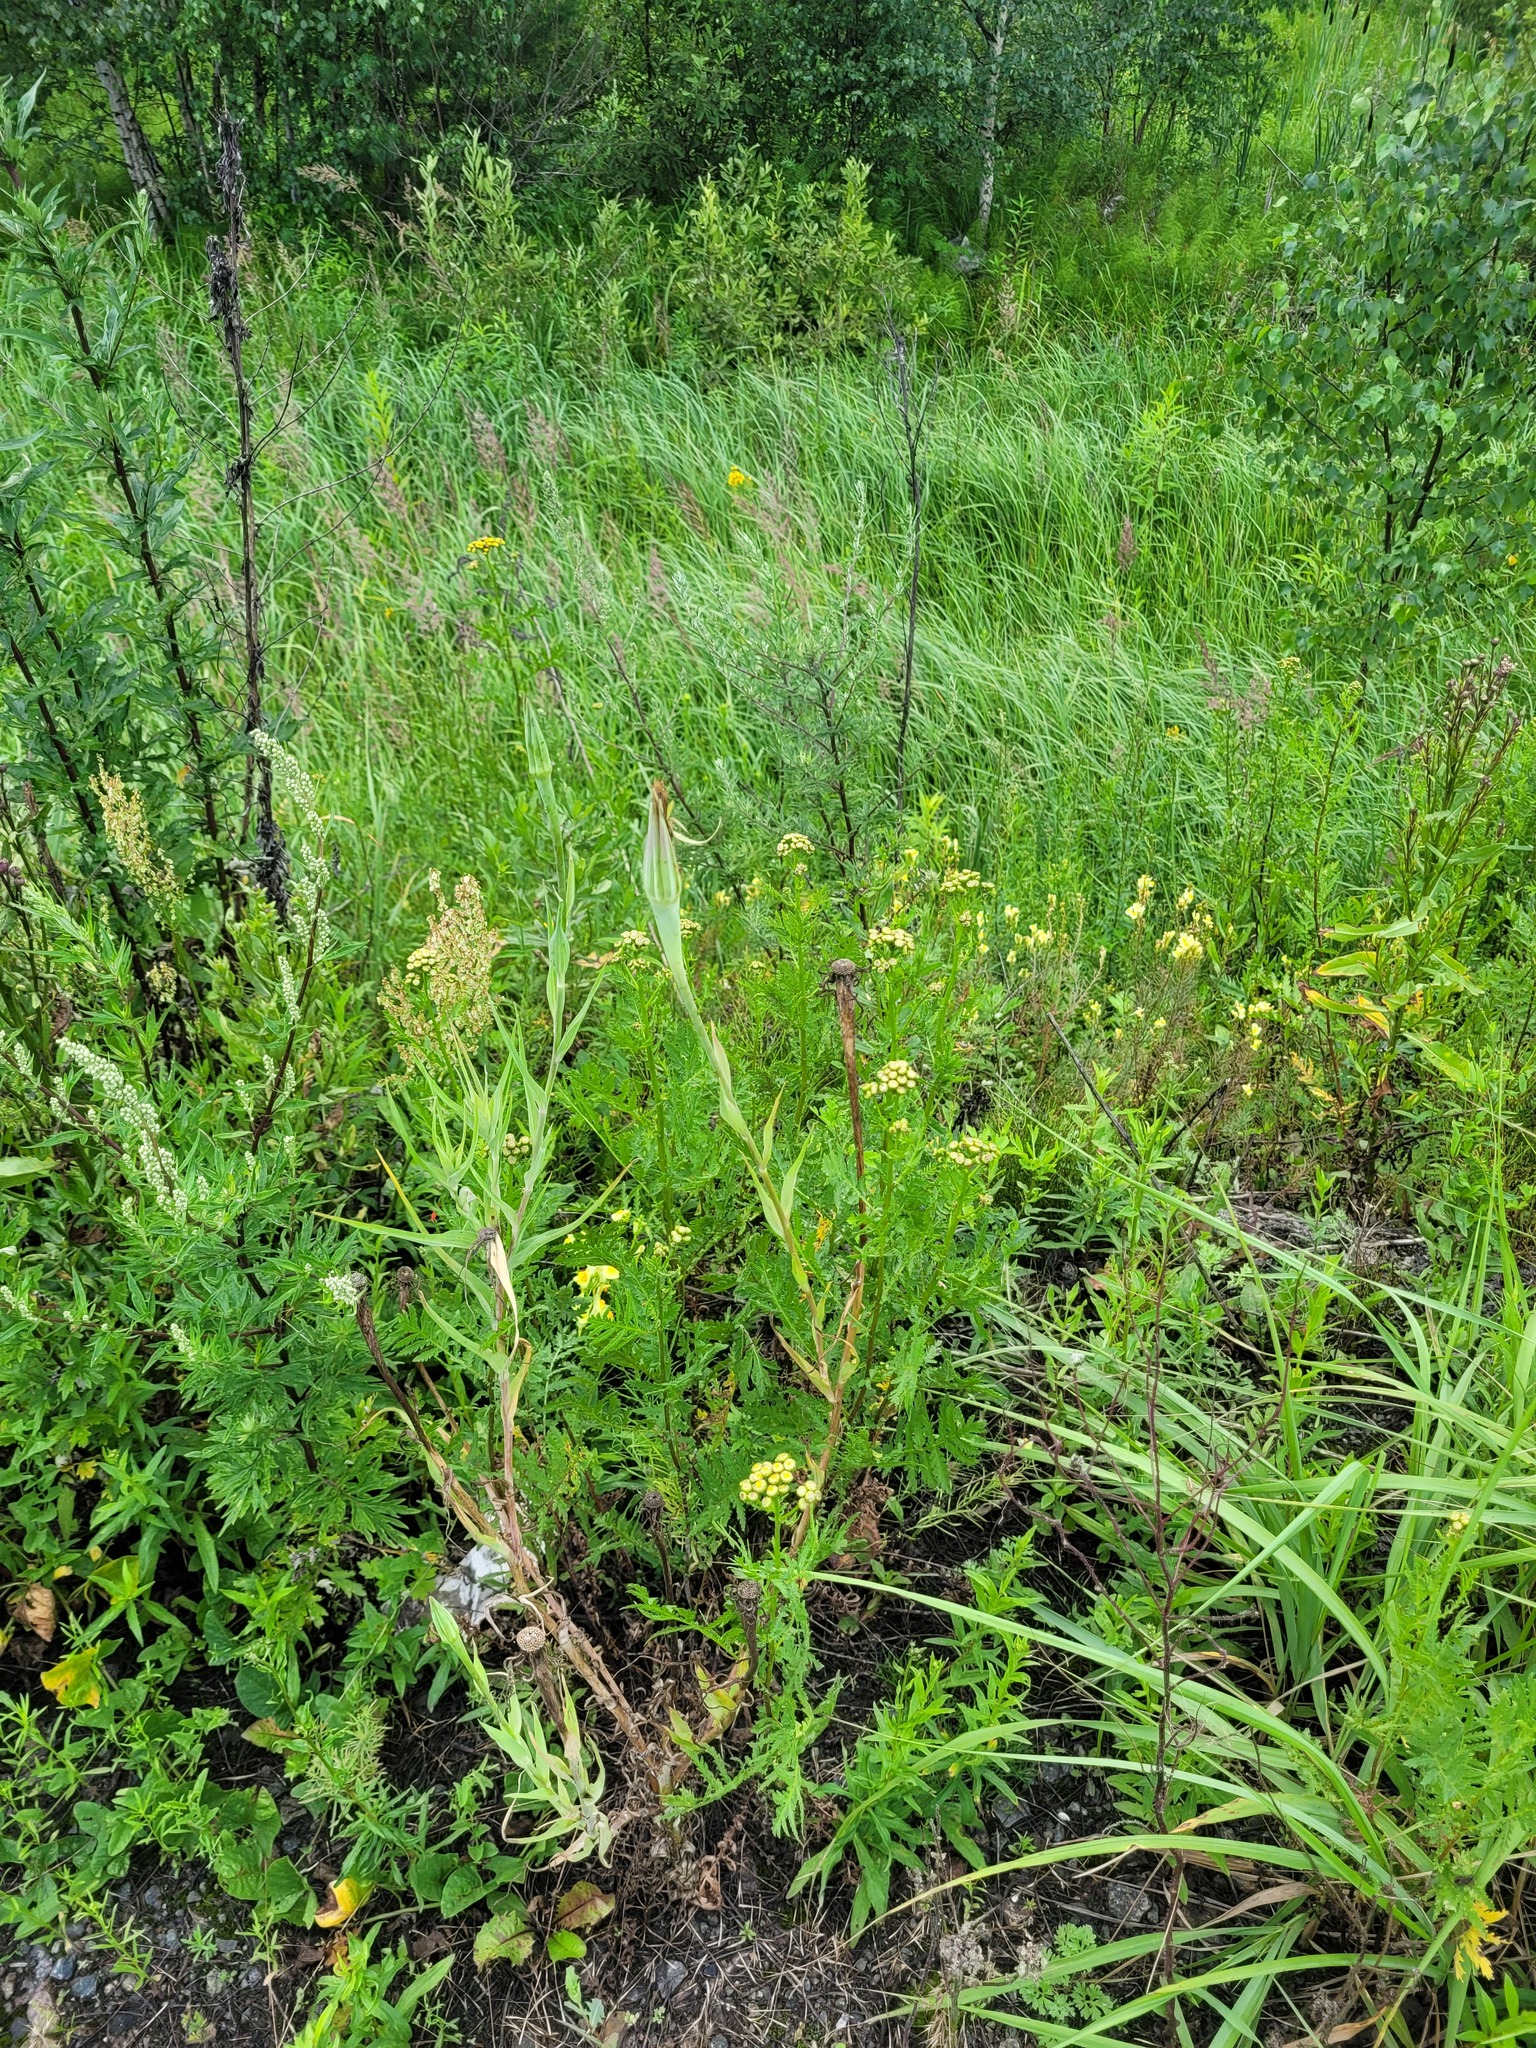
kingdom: Plantae
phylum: Tracheophyta
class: Magnoliopsida
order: Asterales
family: Asteraceae
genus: Tragopogon
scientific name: Tragopogon dubius
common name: Yellow salsify
